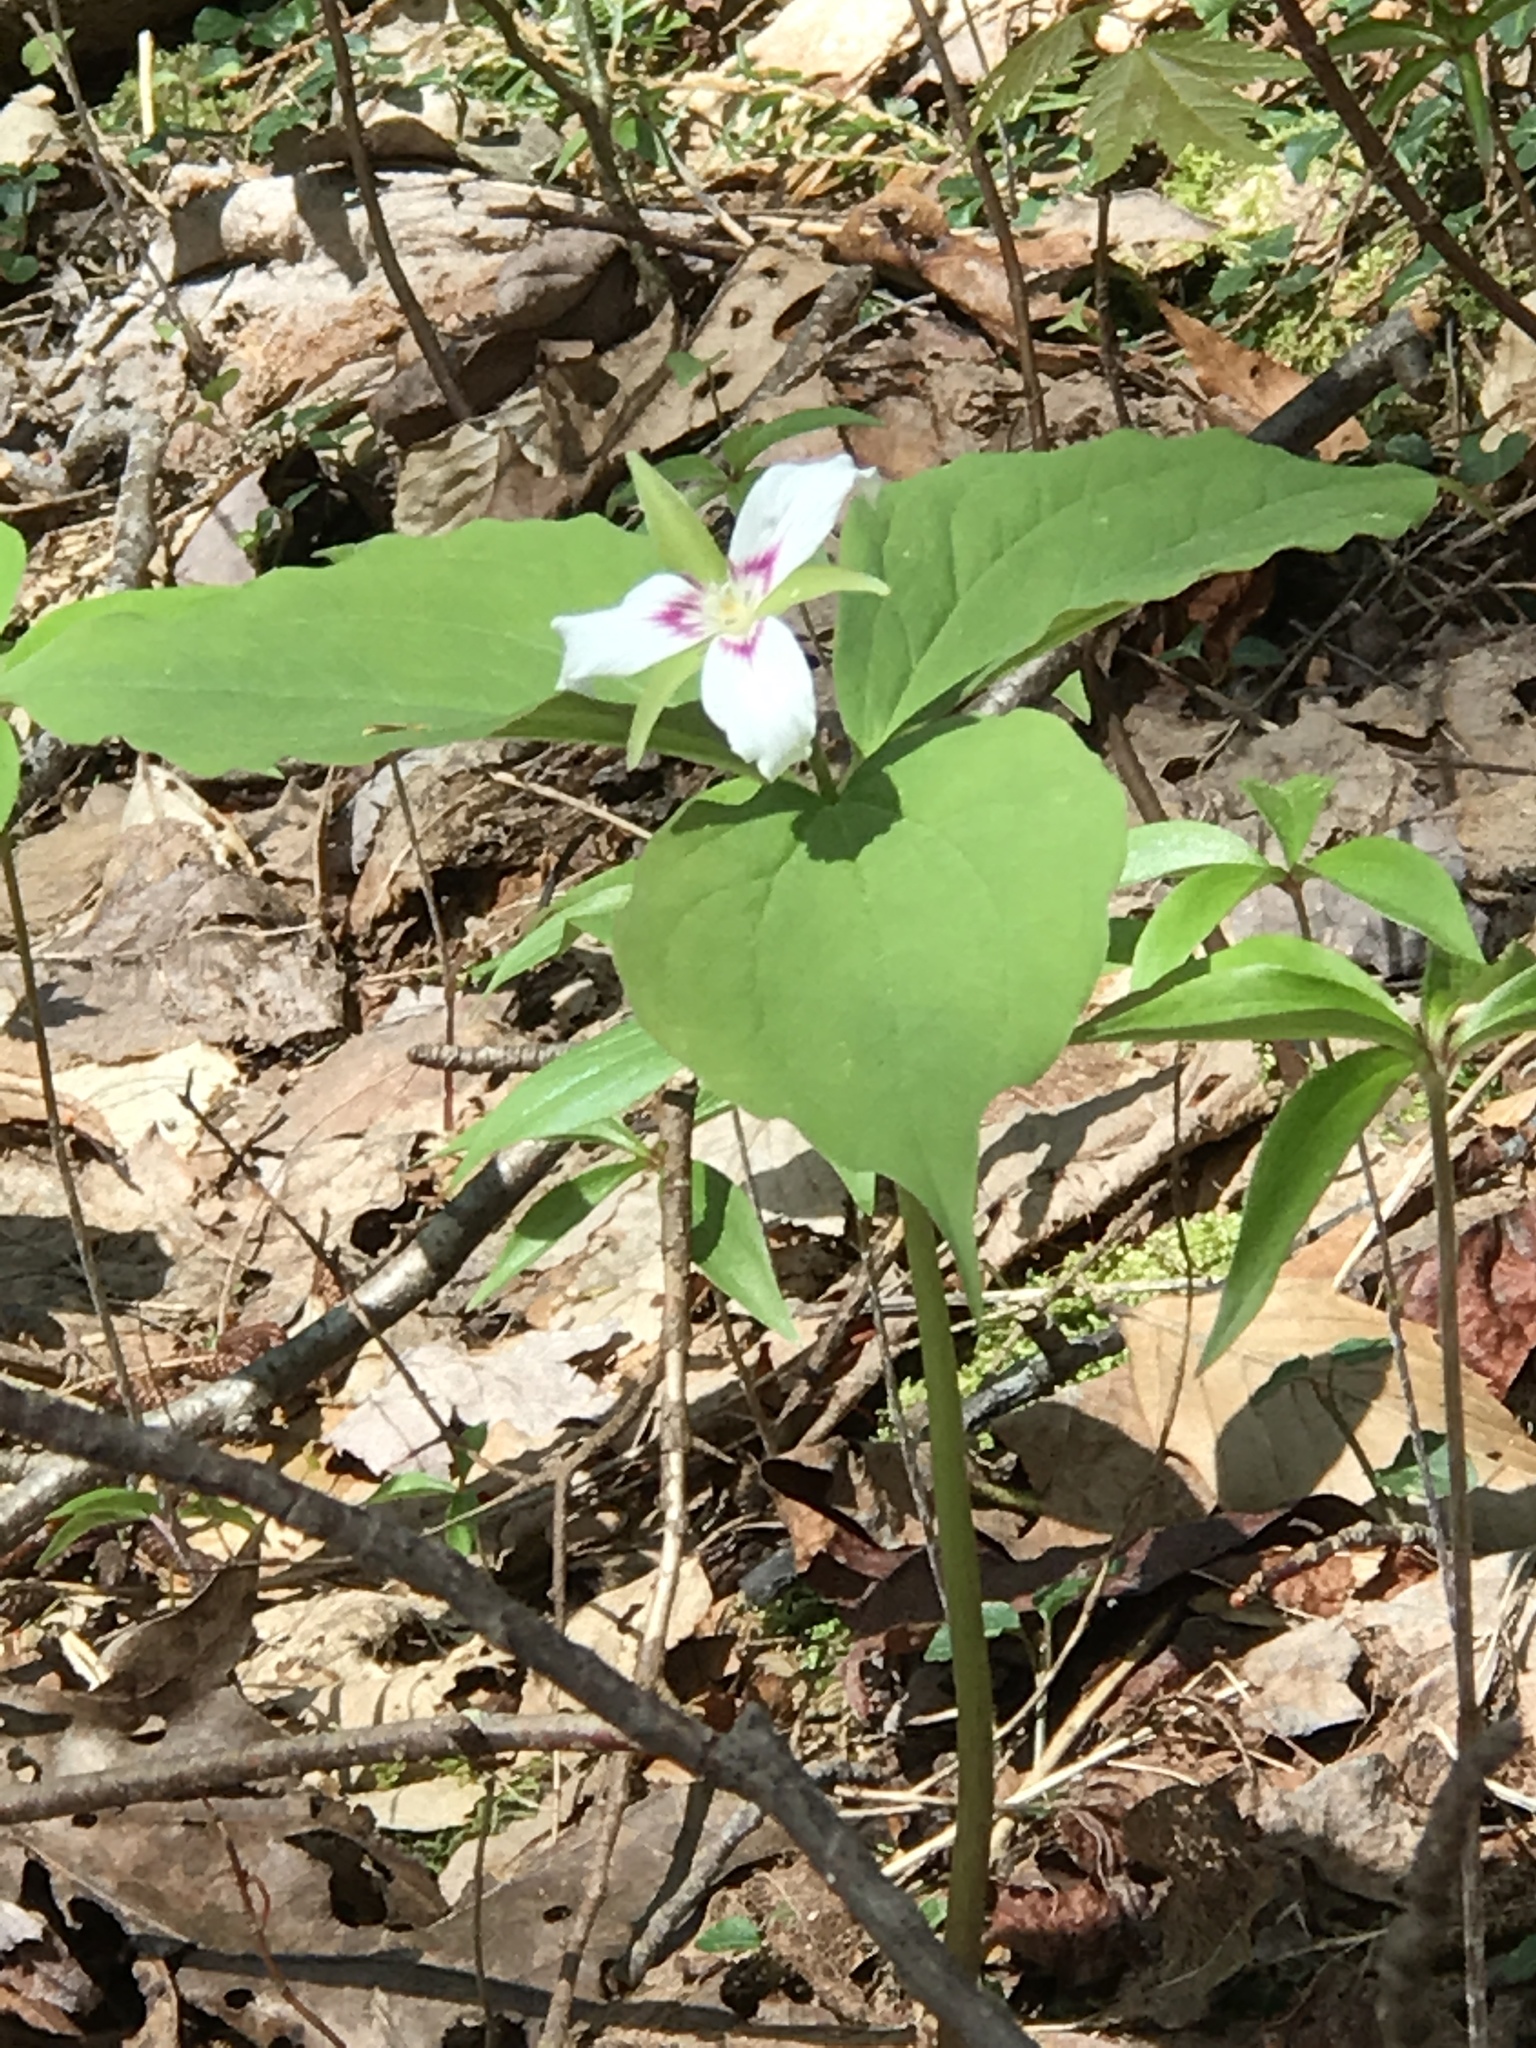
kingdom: Plantae
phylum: Tracheophyta
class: Liliopsida
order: Liliales
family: Melanthiaceae
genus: Trillium
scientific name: Trillium undulatum
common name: Paint trillium
